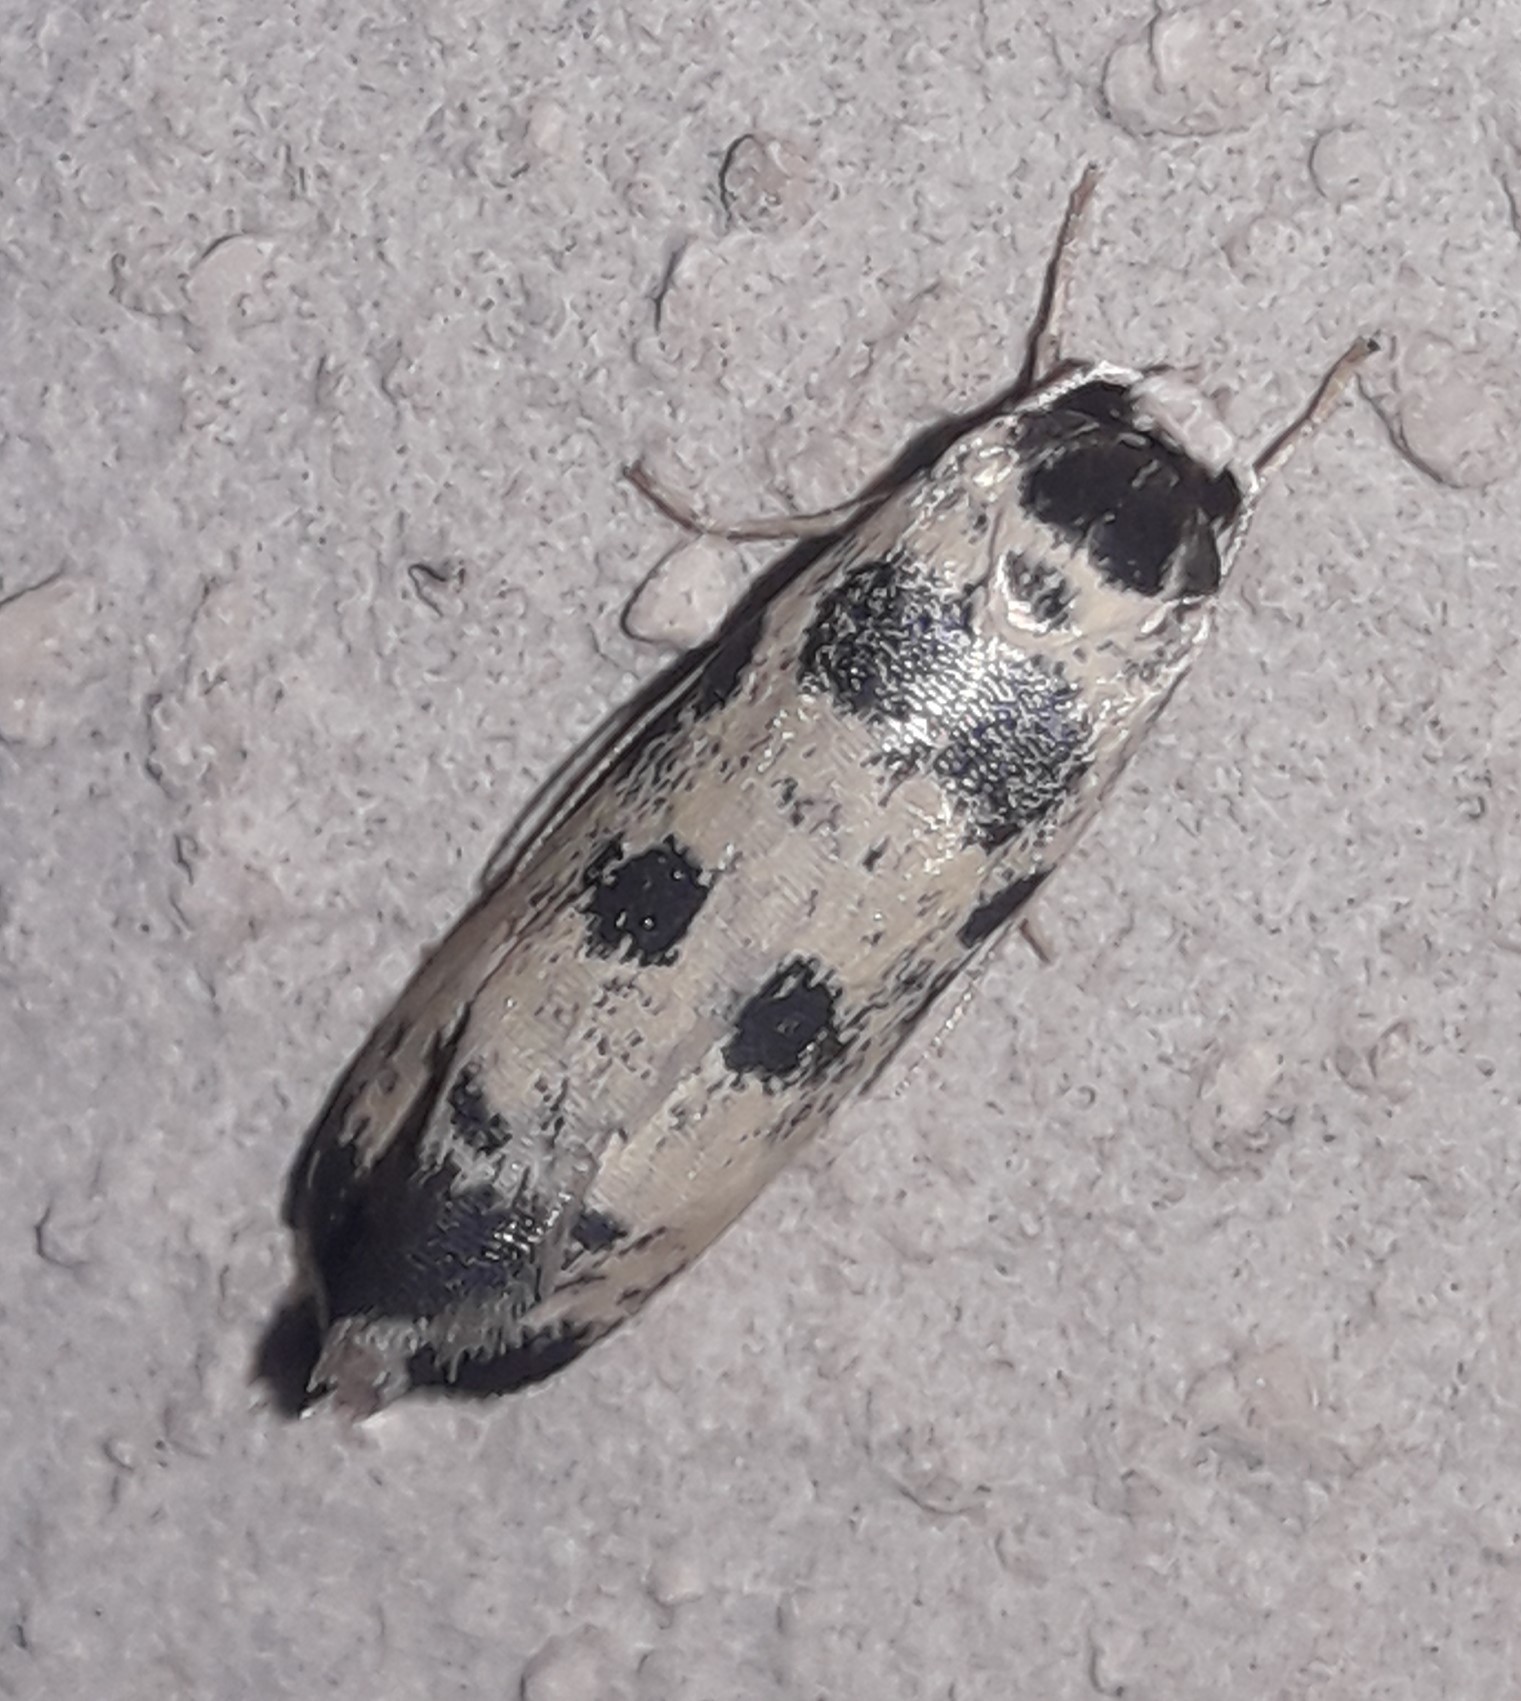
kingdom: Animalia
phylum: Arthropoda
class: Insecta
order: Lepidoptera
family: Ethmiidae
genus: Ethmia
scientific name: Ethmia hammella
